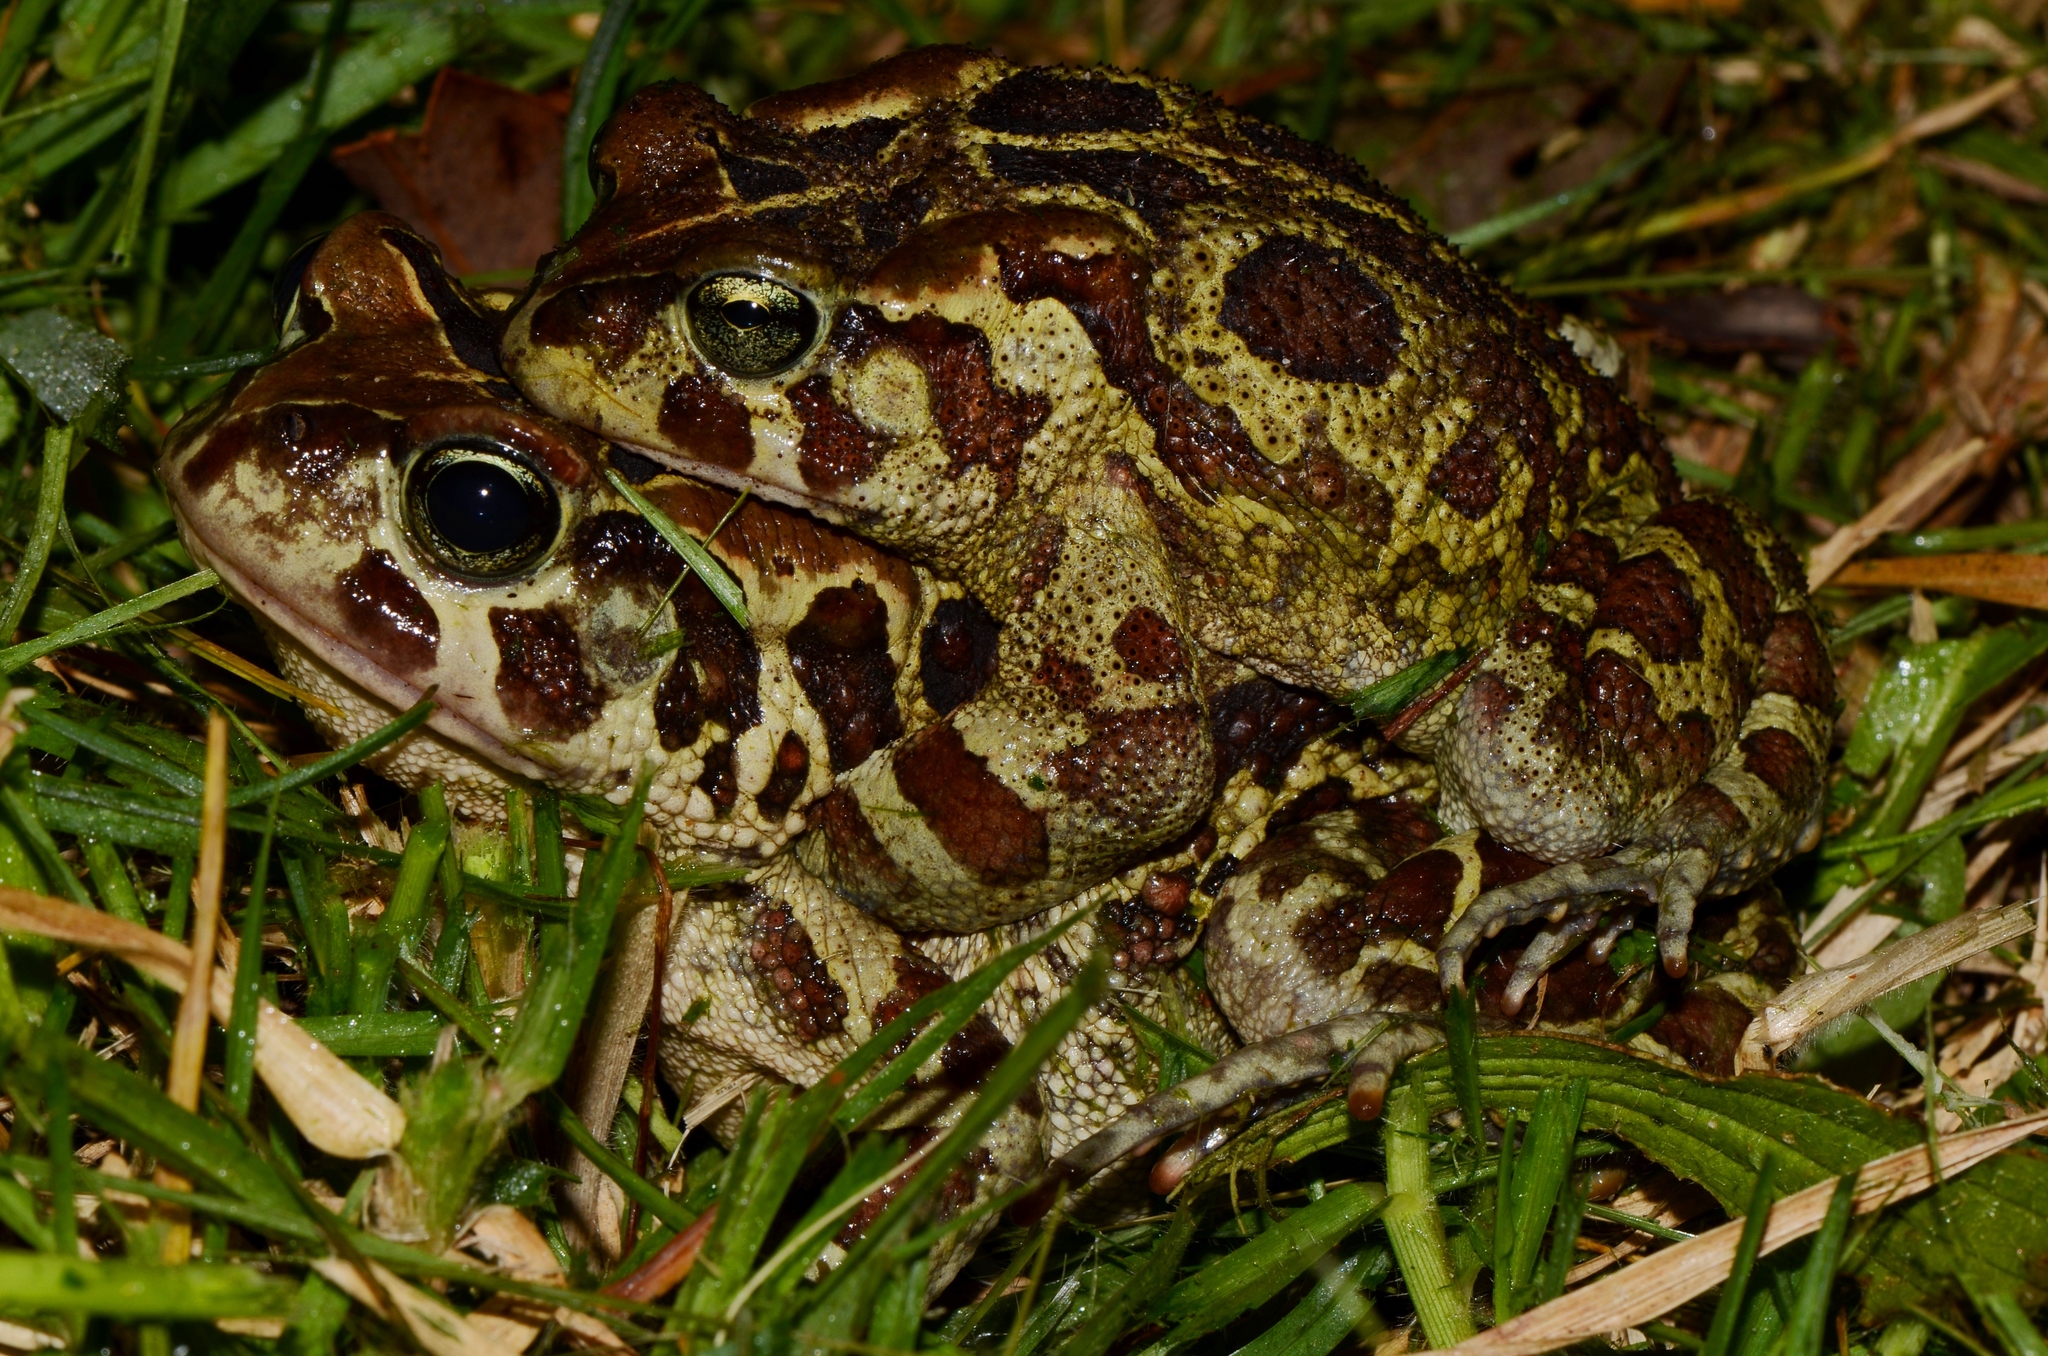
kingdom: Animalia
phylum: Chordata
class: Amphibia
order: Anura
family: Bufonidae
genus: Sclerophrys
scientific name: Sclerophrys pantherina
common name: Panther toad
